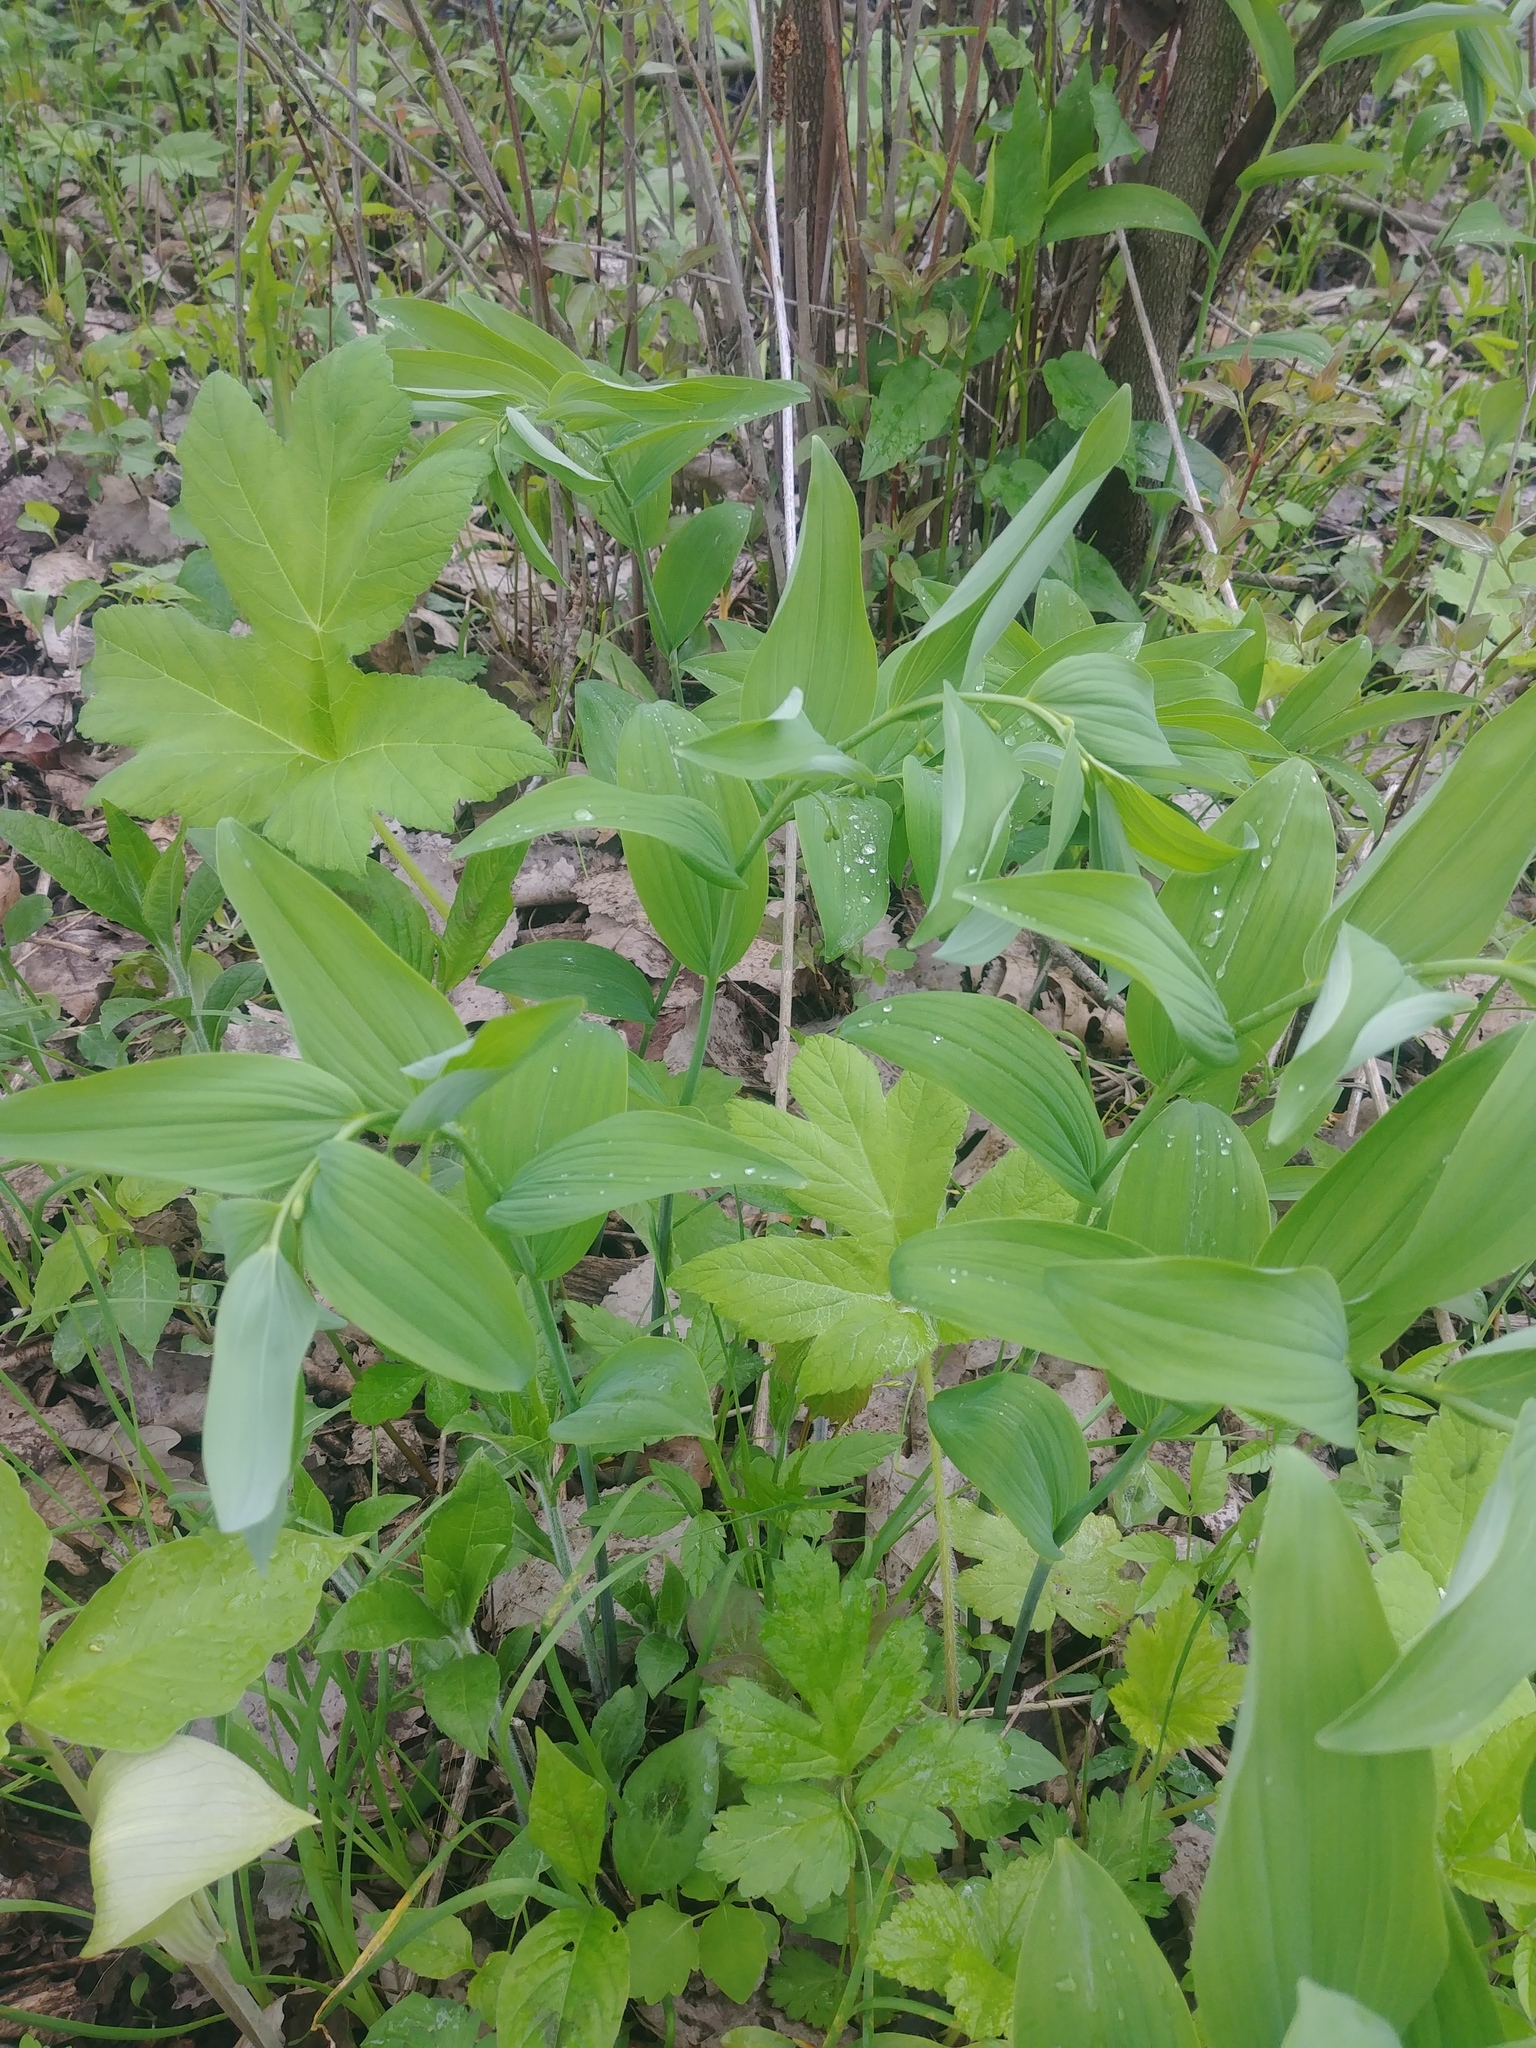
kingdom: Plantae
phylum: Tracheophyta
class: Liliopsida
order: Asparagales
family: Asparagaceae
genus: Polygonatum
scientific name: Polygonatum biflorum
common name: American solomon's-seal
